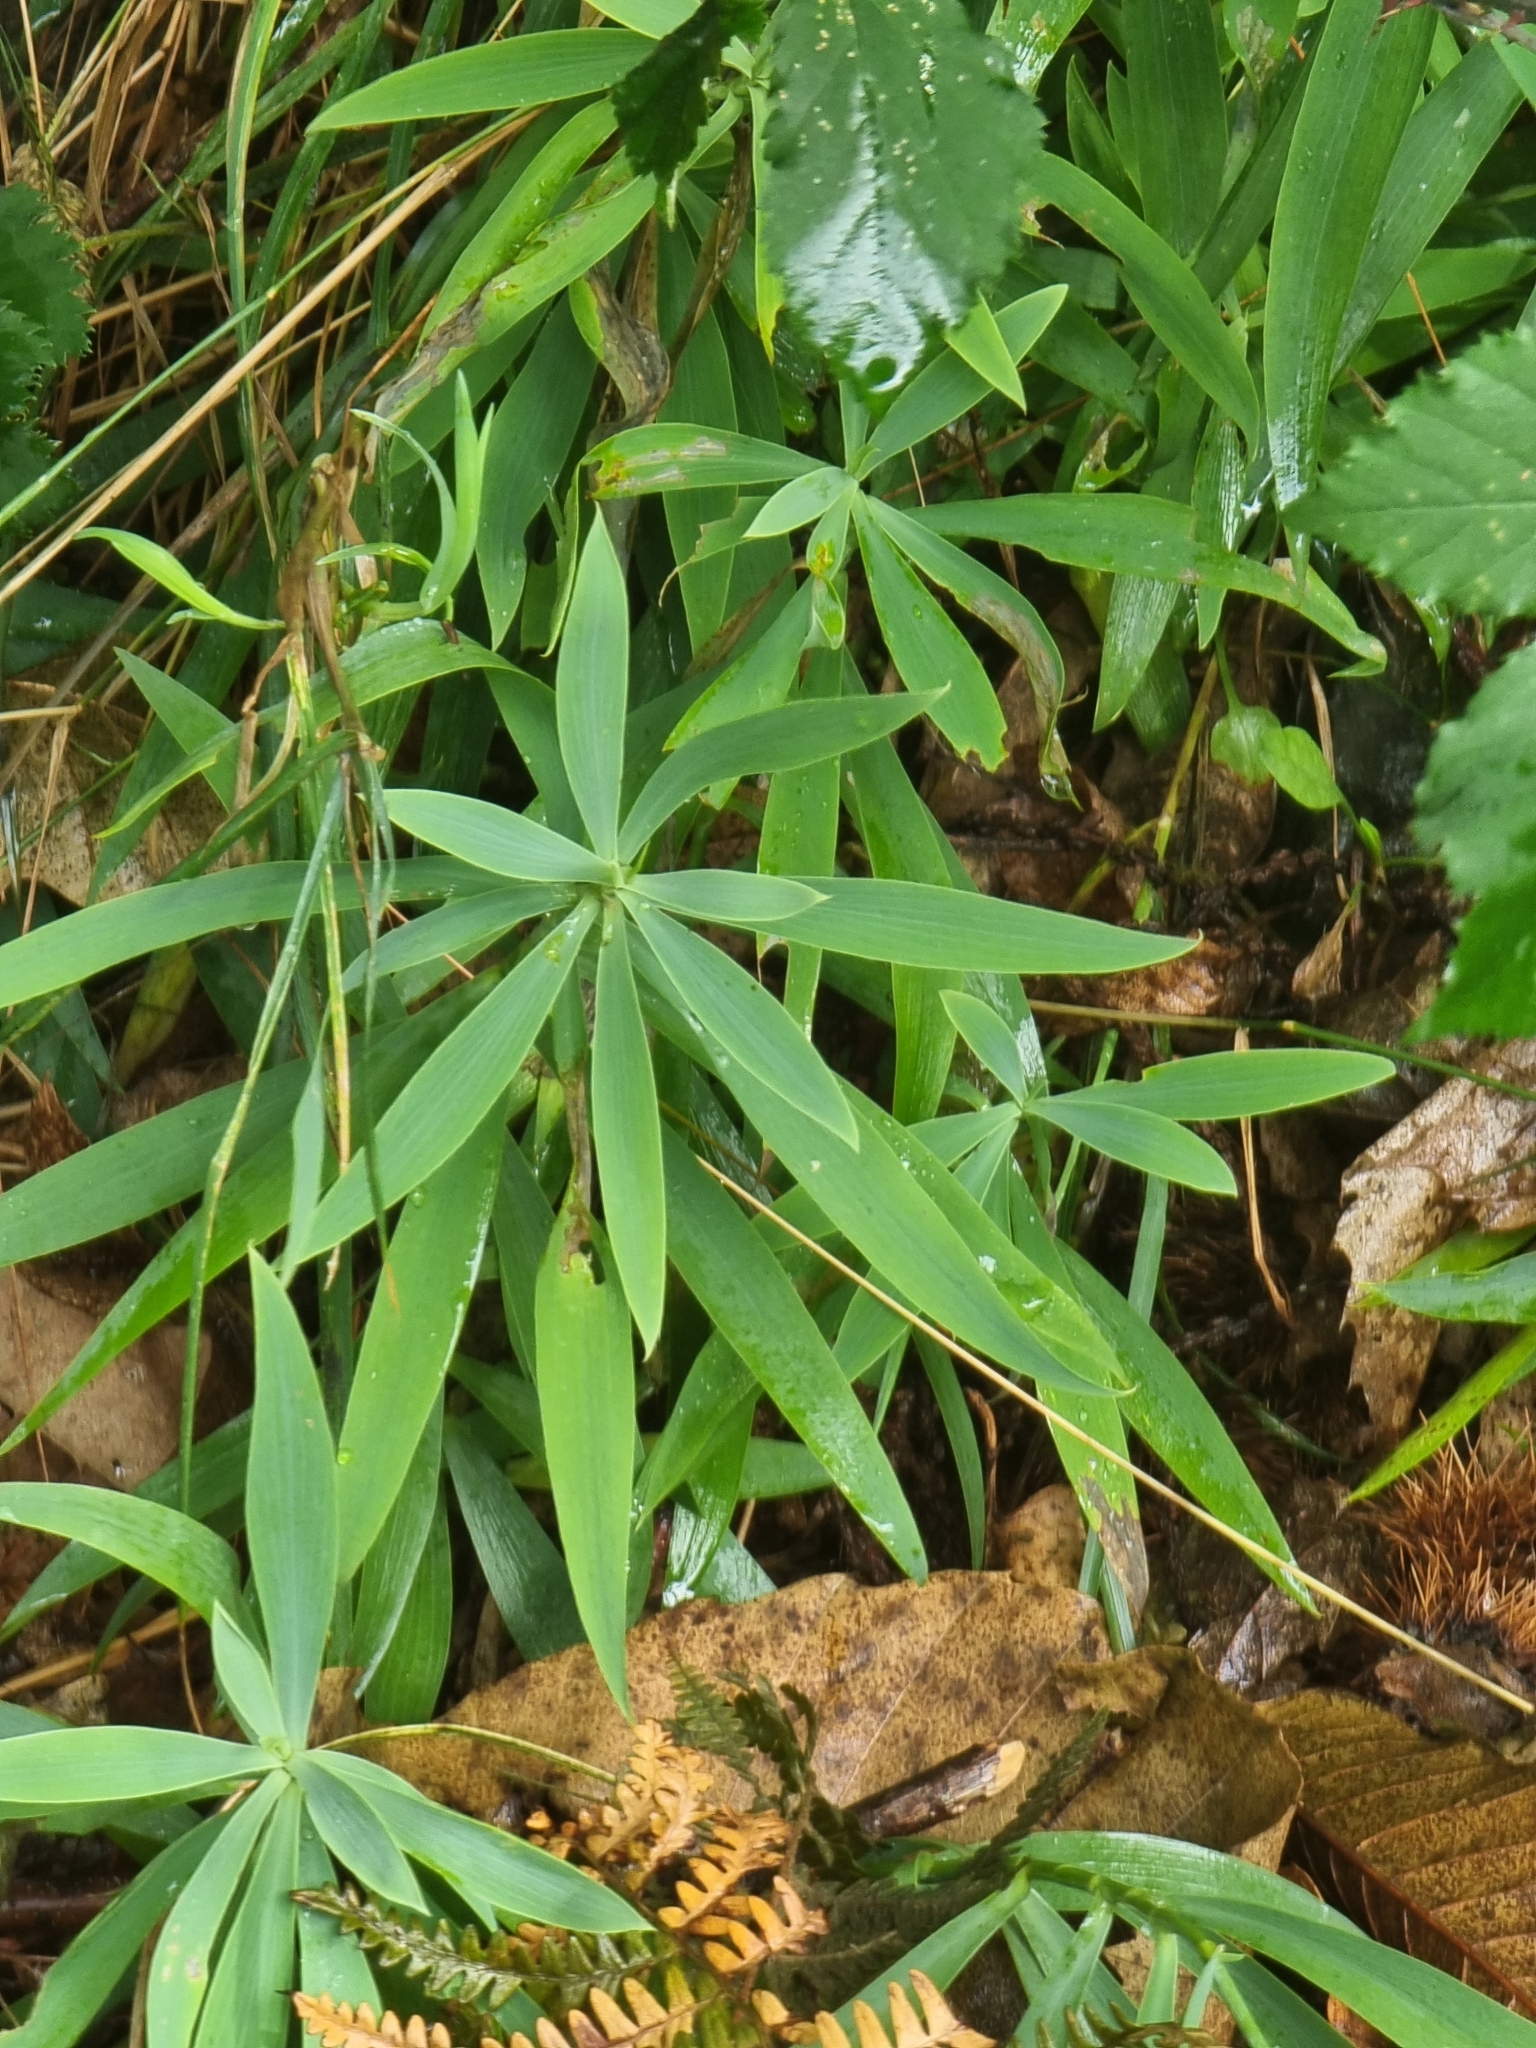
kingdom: Plantae
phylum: Tracheophyta
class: Magnoliopsida
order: Apiales
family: Apiaceae
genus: Bupleurum
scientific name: Bupleurum salicifolium
